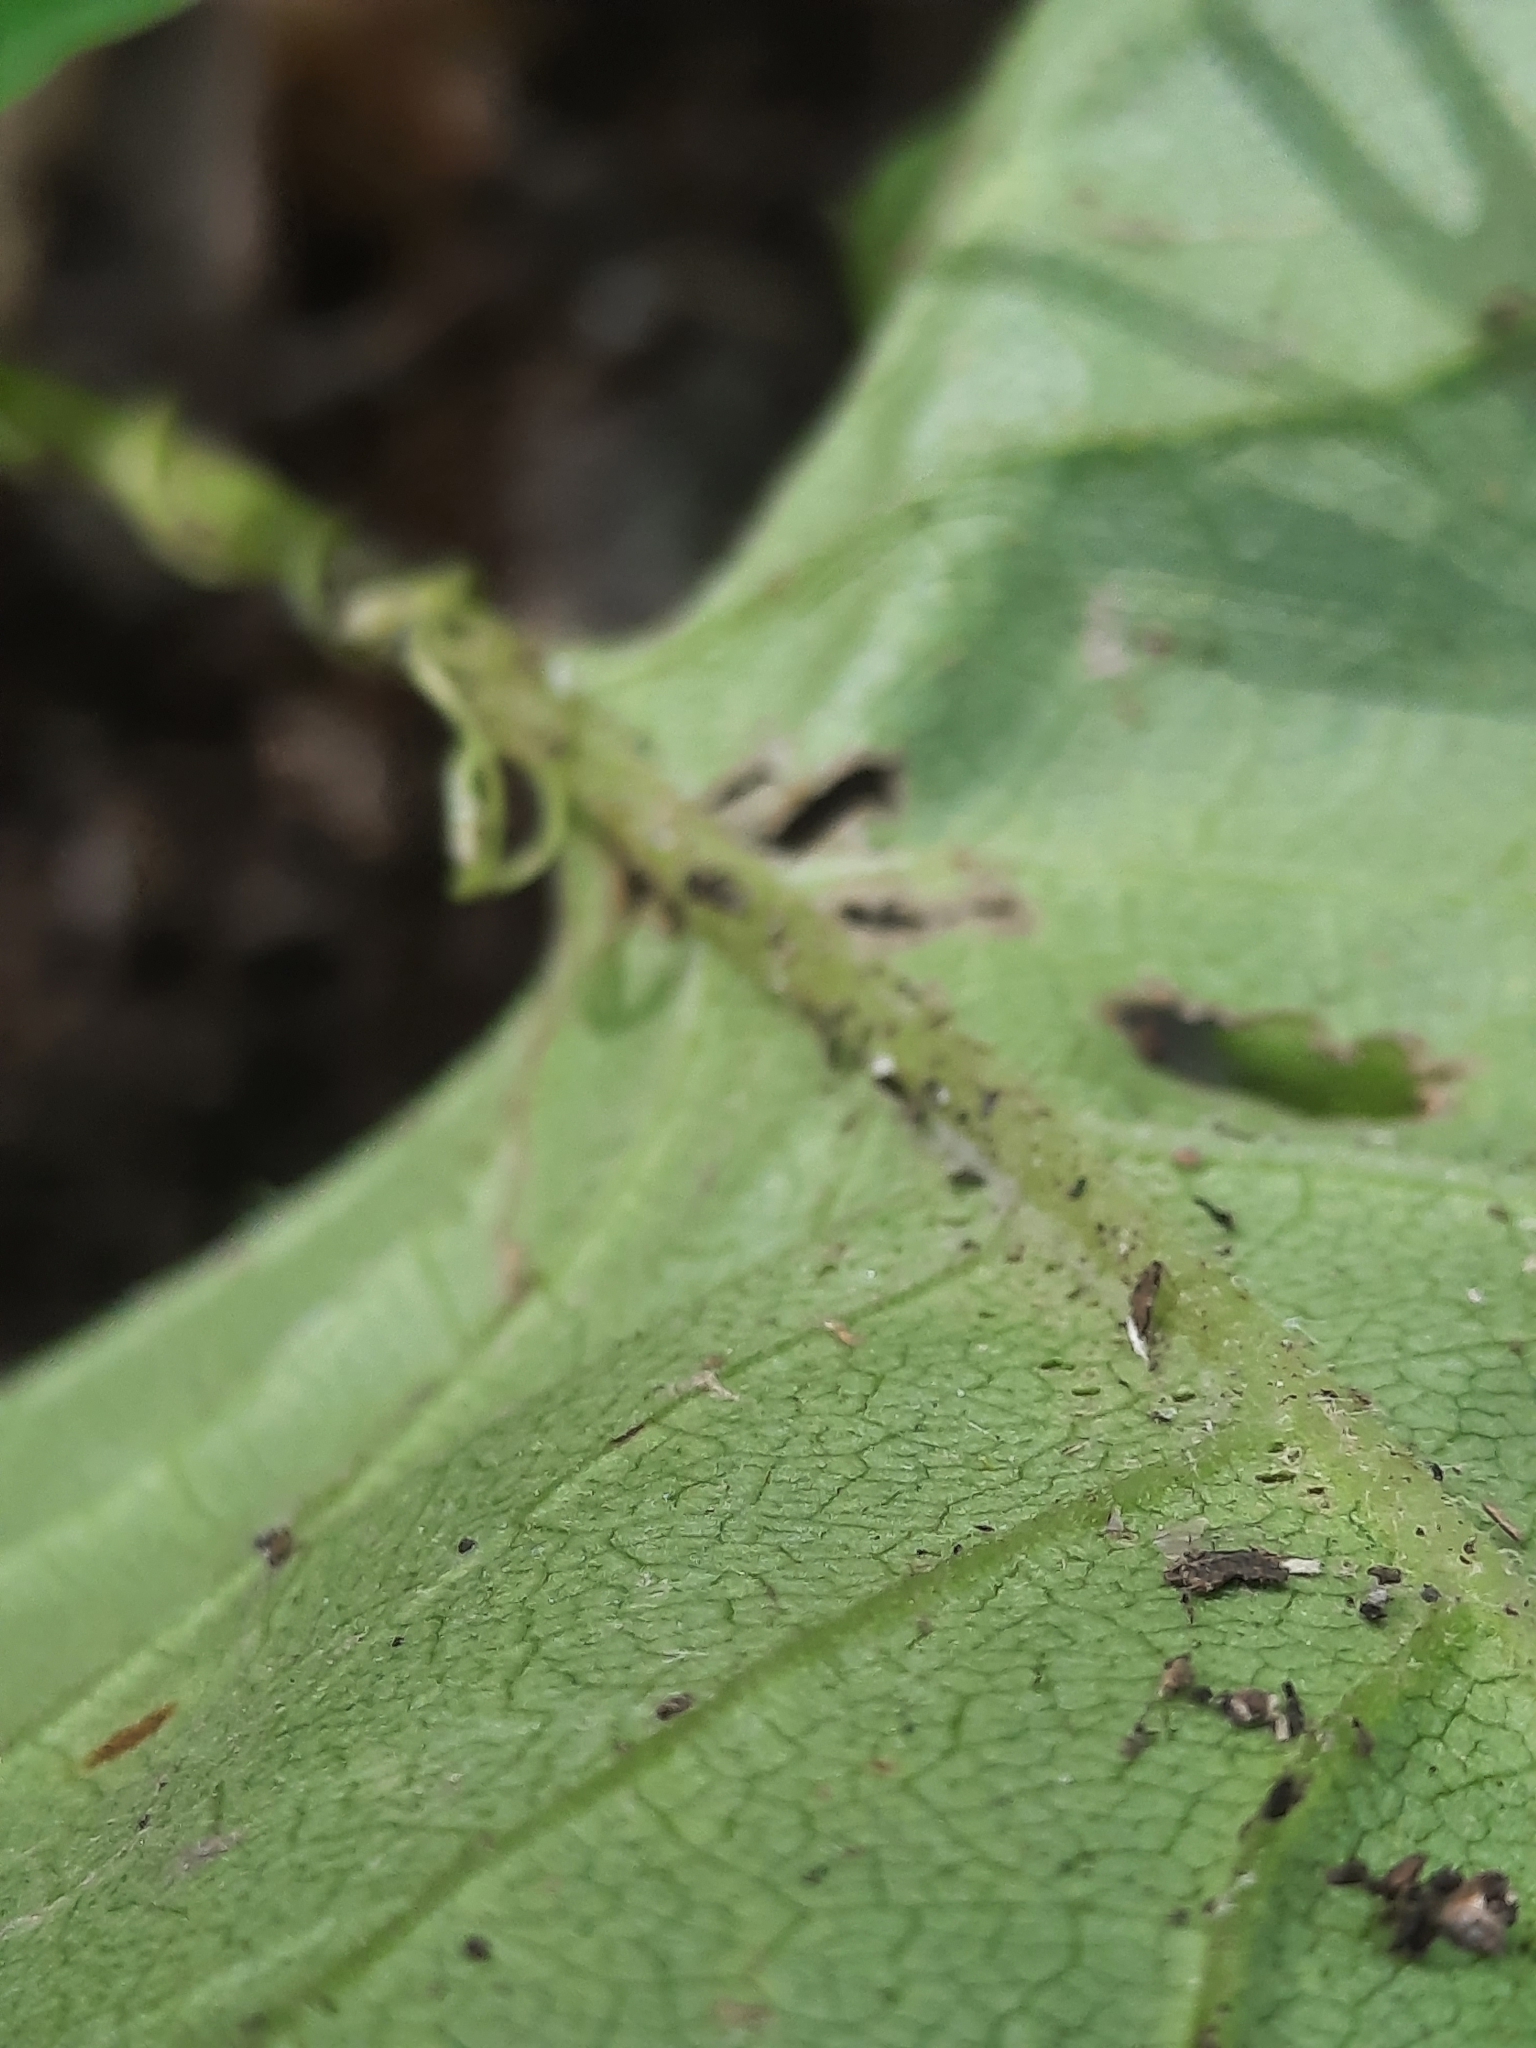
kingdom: Plantae
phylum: Tracheophyta
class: Magnoliopsida
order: Asterales
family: Asteraceae
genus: Eurybia
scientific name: Eurybia macrophylla
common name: Big-leaved aster
